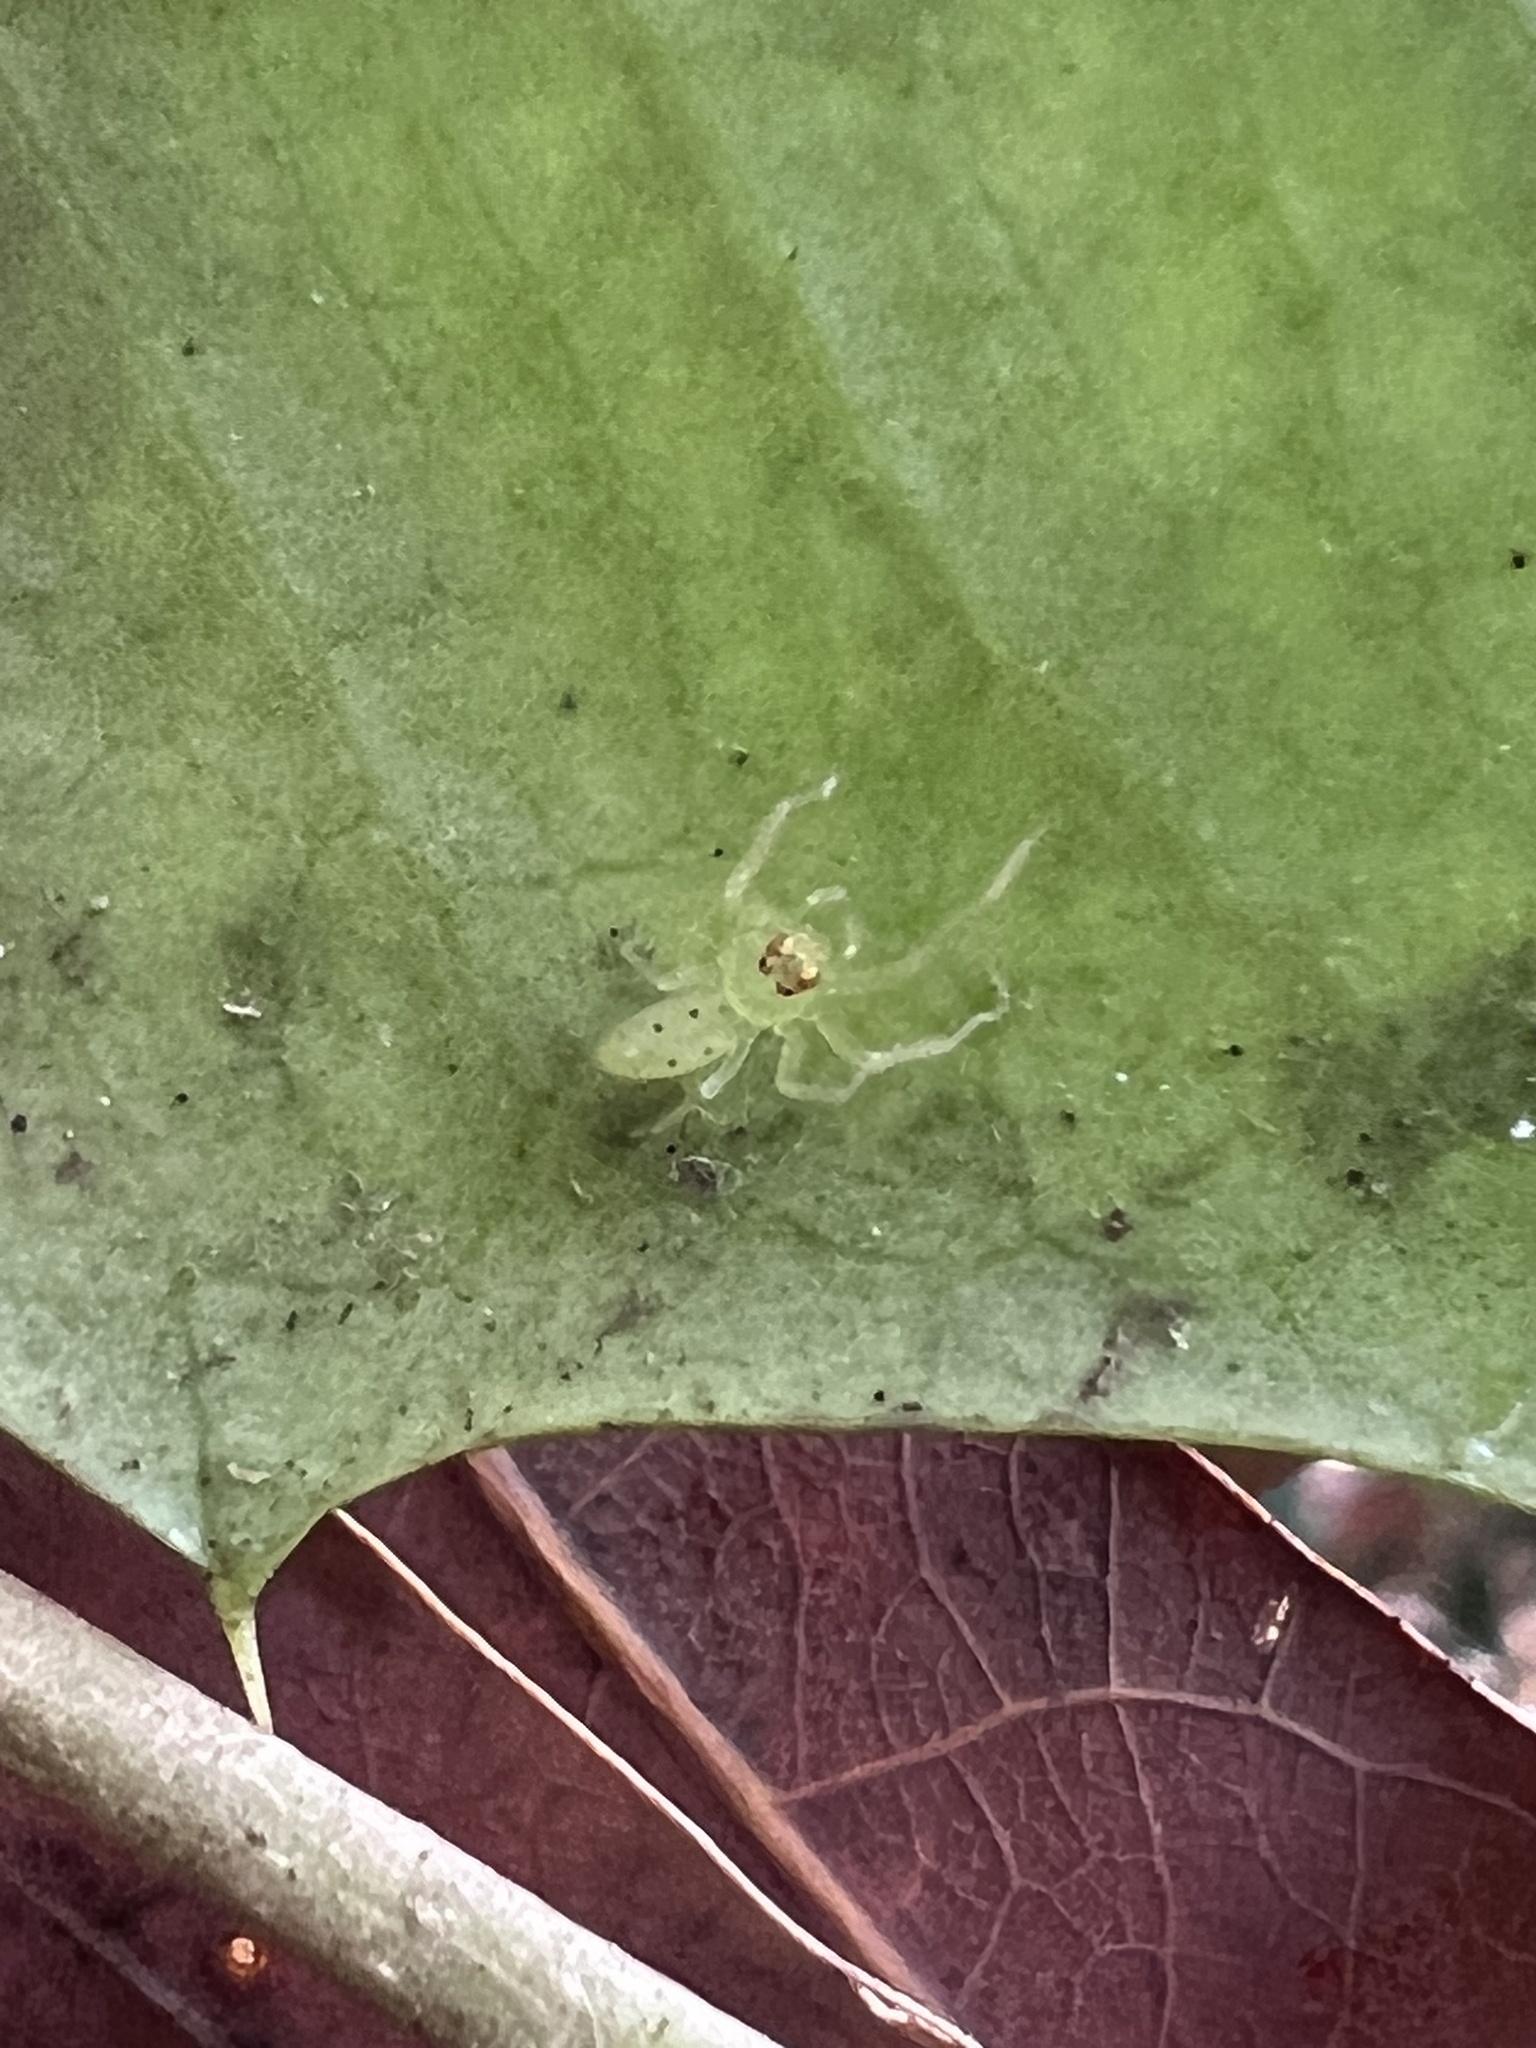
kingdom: Animalia
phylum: Arthropoda
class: Arachnida
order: Araneae
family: Salticidae
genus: Lyssomanes
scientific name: Lyssomanes viridis
